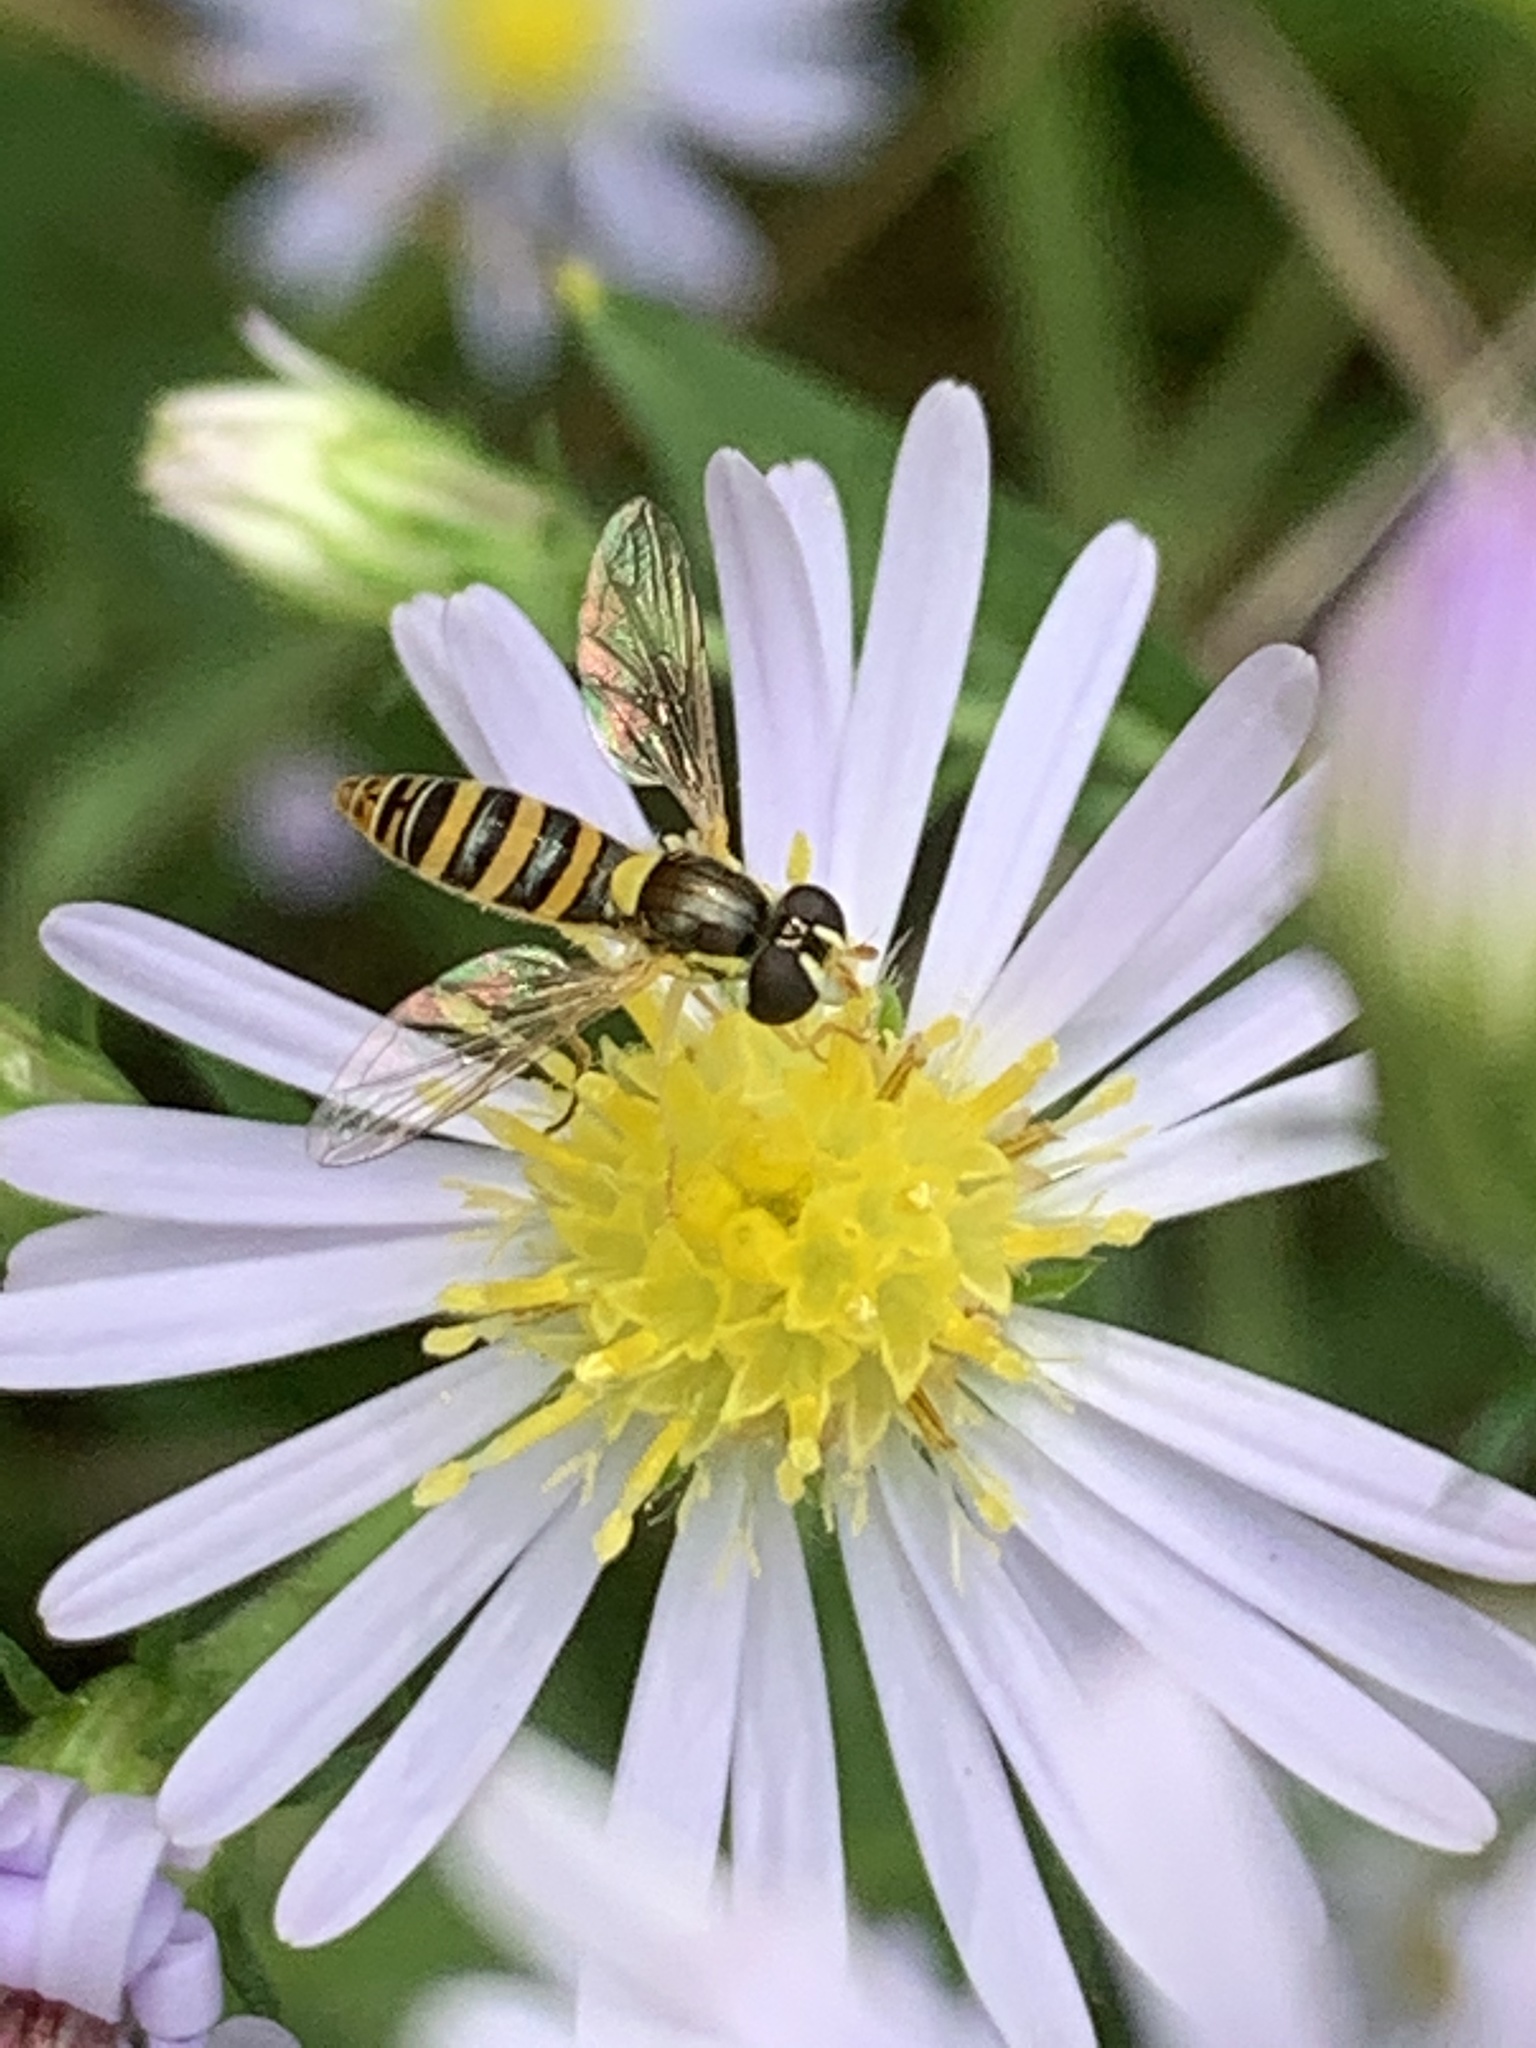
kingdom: Animalia
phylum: Arthropoda
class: Insecta
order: Diptera
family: Syrphidae
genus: Sphaerophoria
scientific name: Sphaerophoria contigua
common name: Tufted globetail
